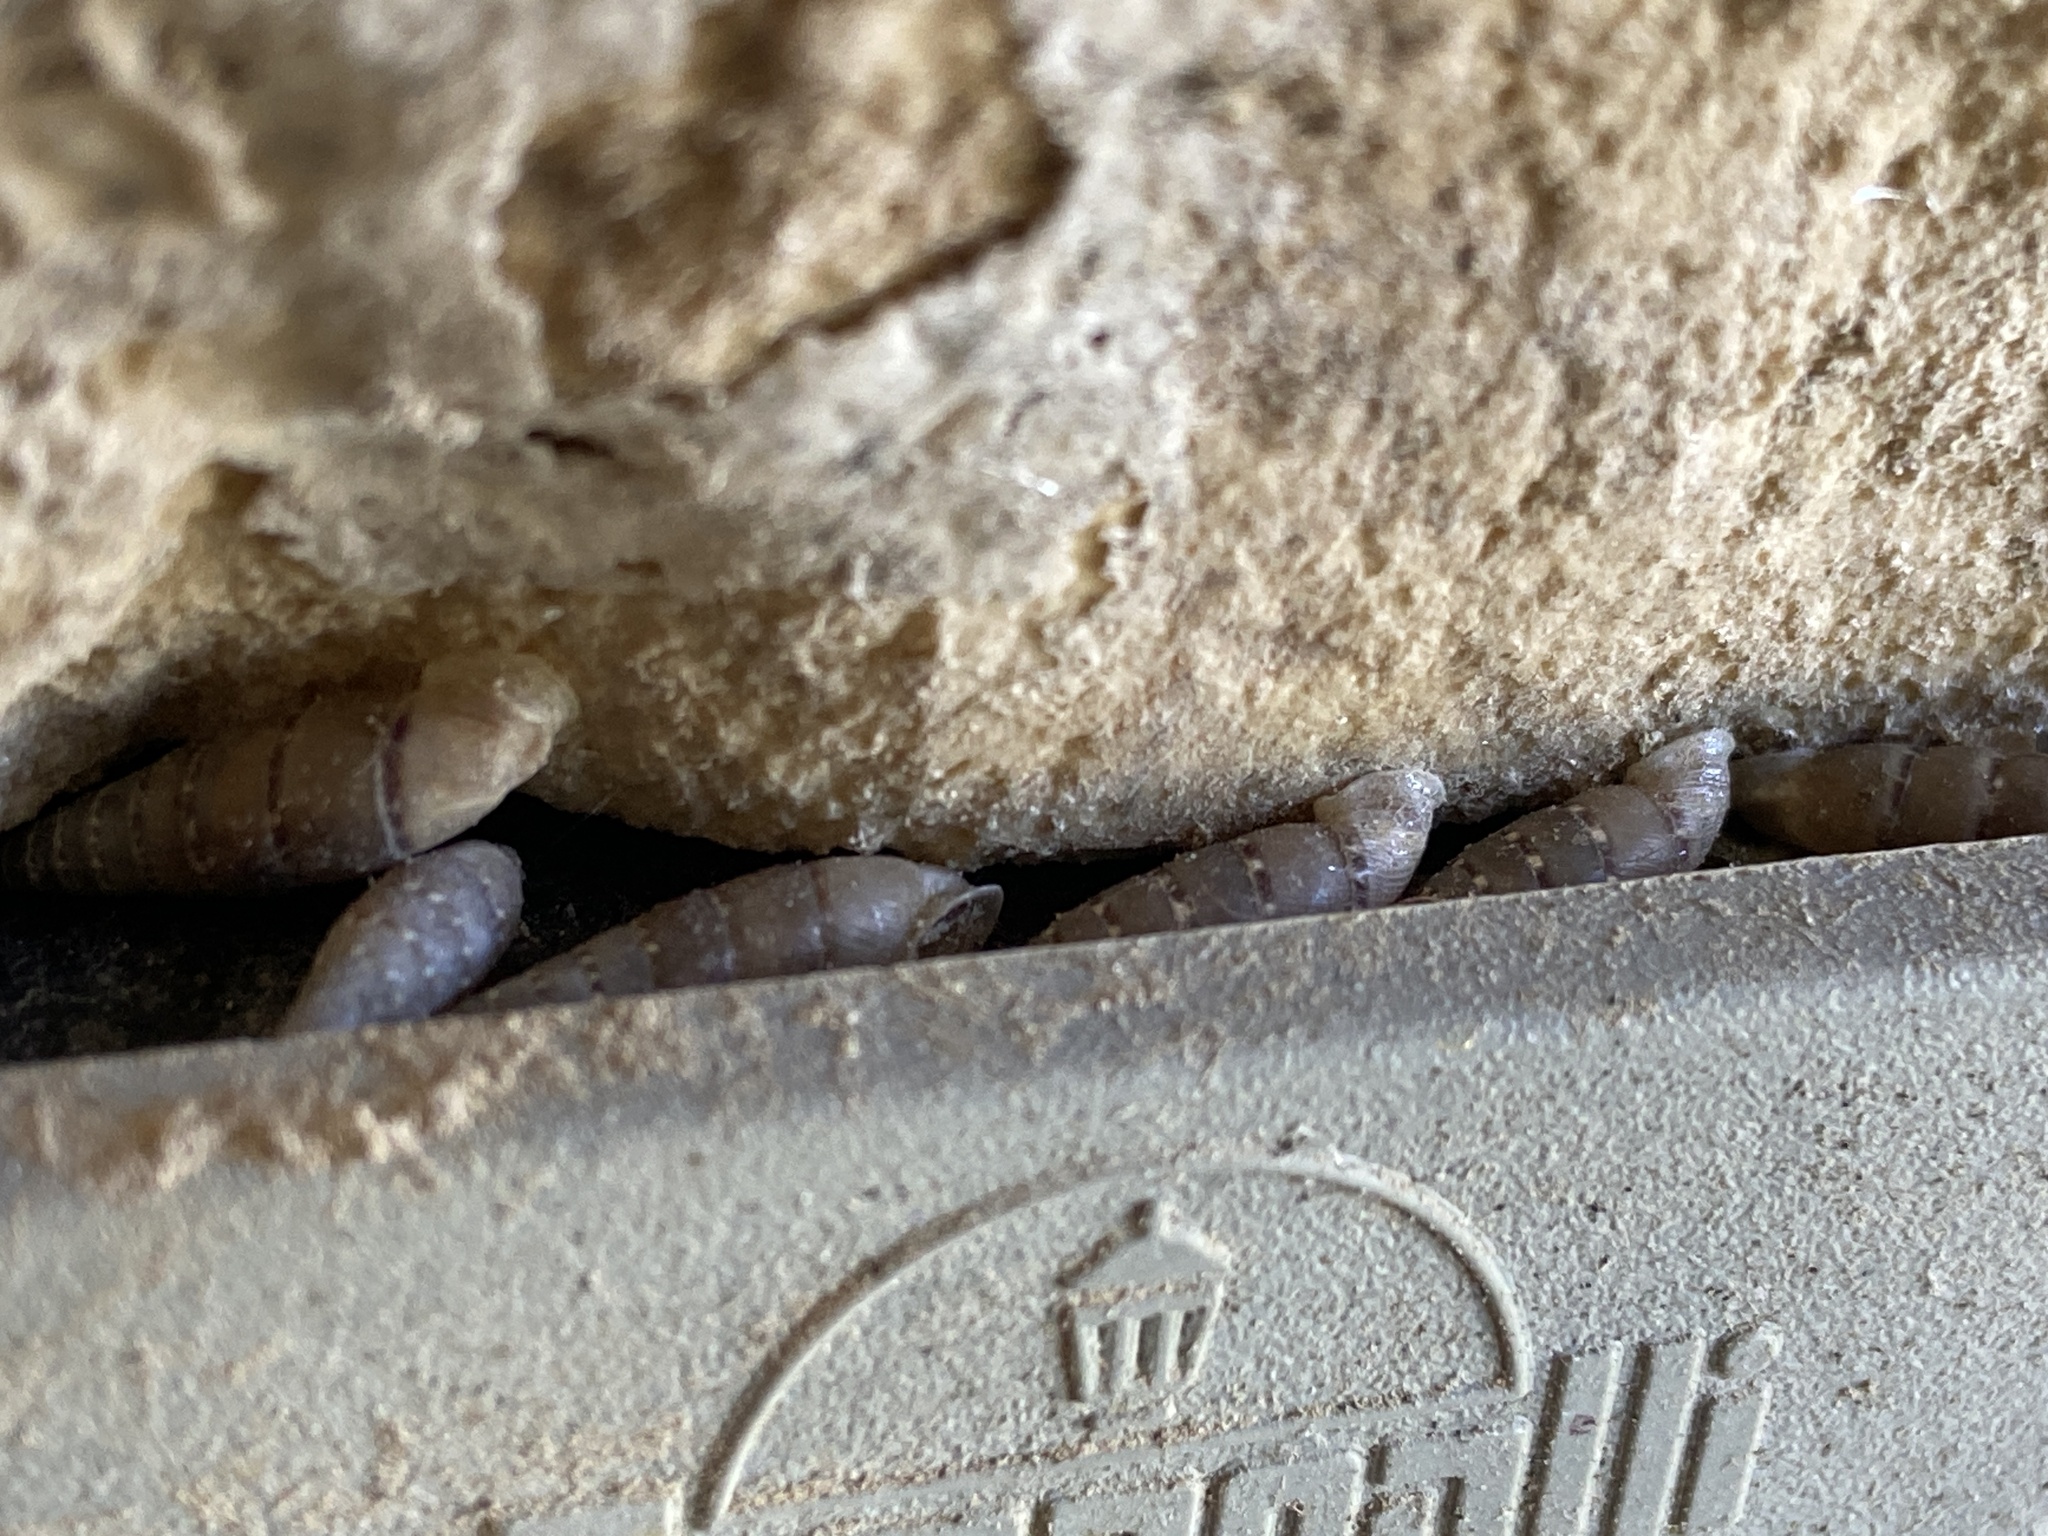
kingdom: Animalia
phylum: Mollusca
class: Gastropoda
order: Stylommatophora
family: Clausiliidae
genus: Papillifera
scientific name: Papillifera papillaris
